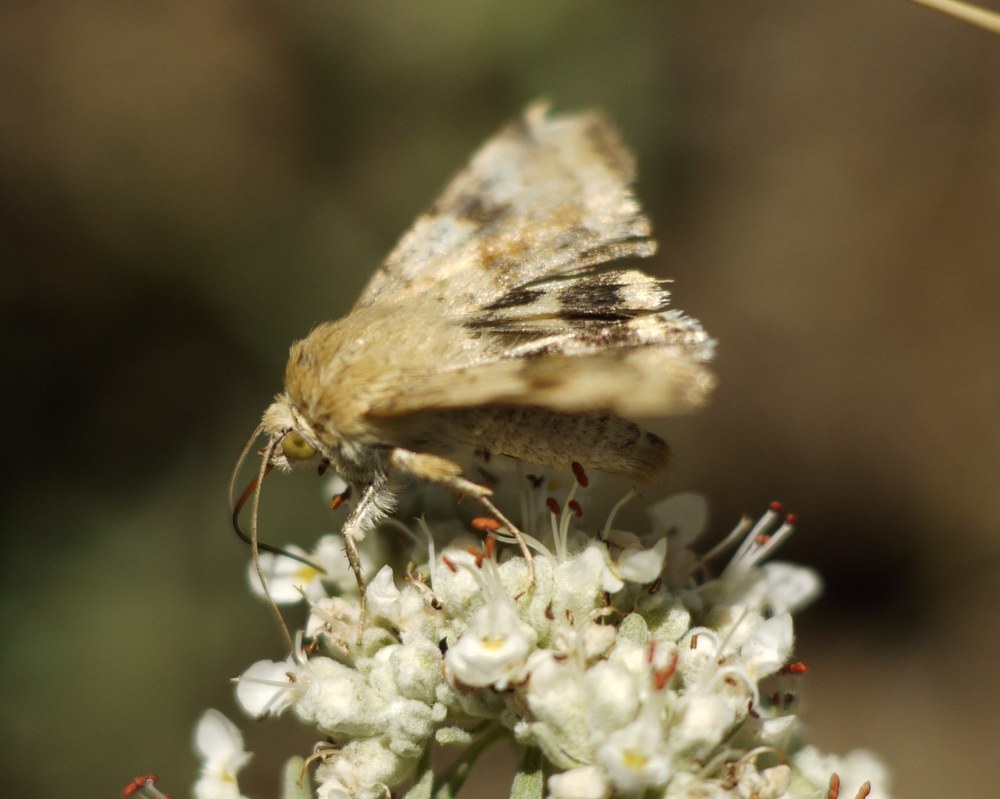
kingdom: Animalia
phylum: Arthropoda
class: Insecta
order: Lepidoptera
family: Noctuidae
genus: Heliothis
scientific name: Heliothis viriplaca
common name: Marbled clover
